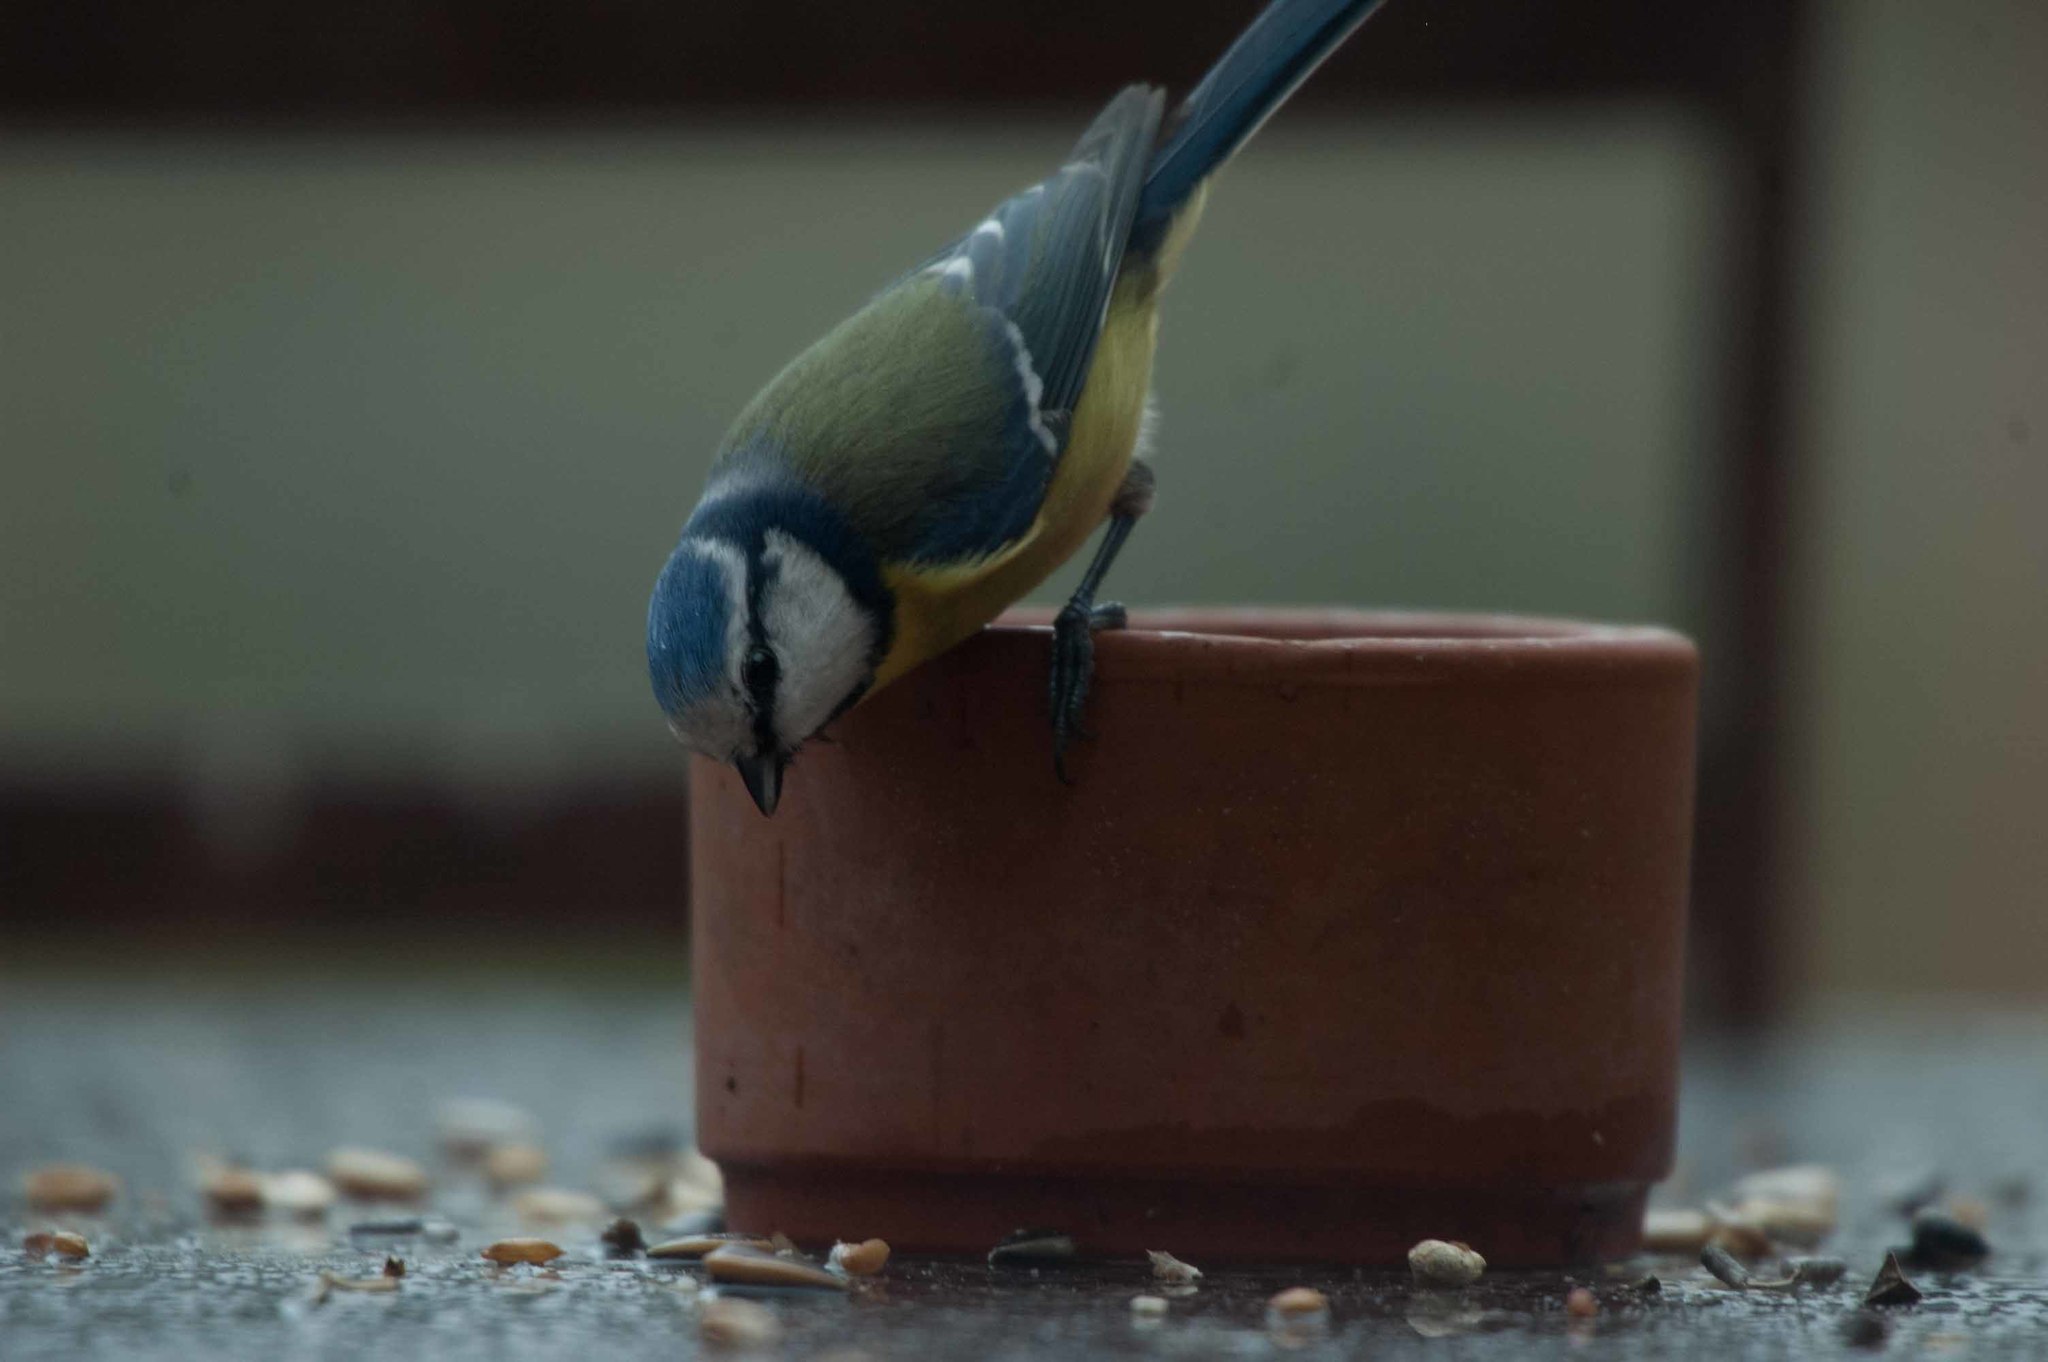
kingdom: Animalia
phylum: Chordata
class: Aves
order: Passeriformes
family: Paridae
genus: Cyanistes
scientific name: Cyanistes caeruleus
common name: Eurasian blue tit
